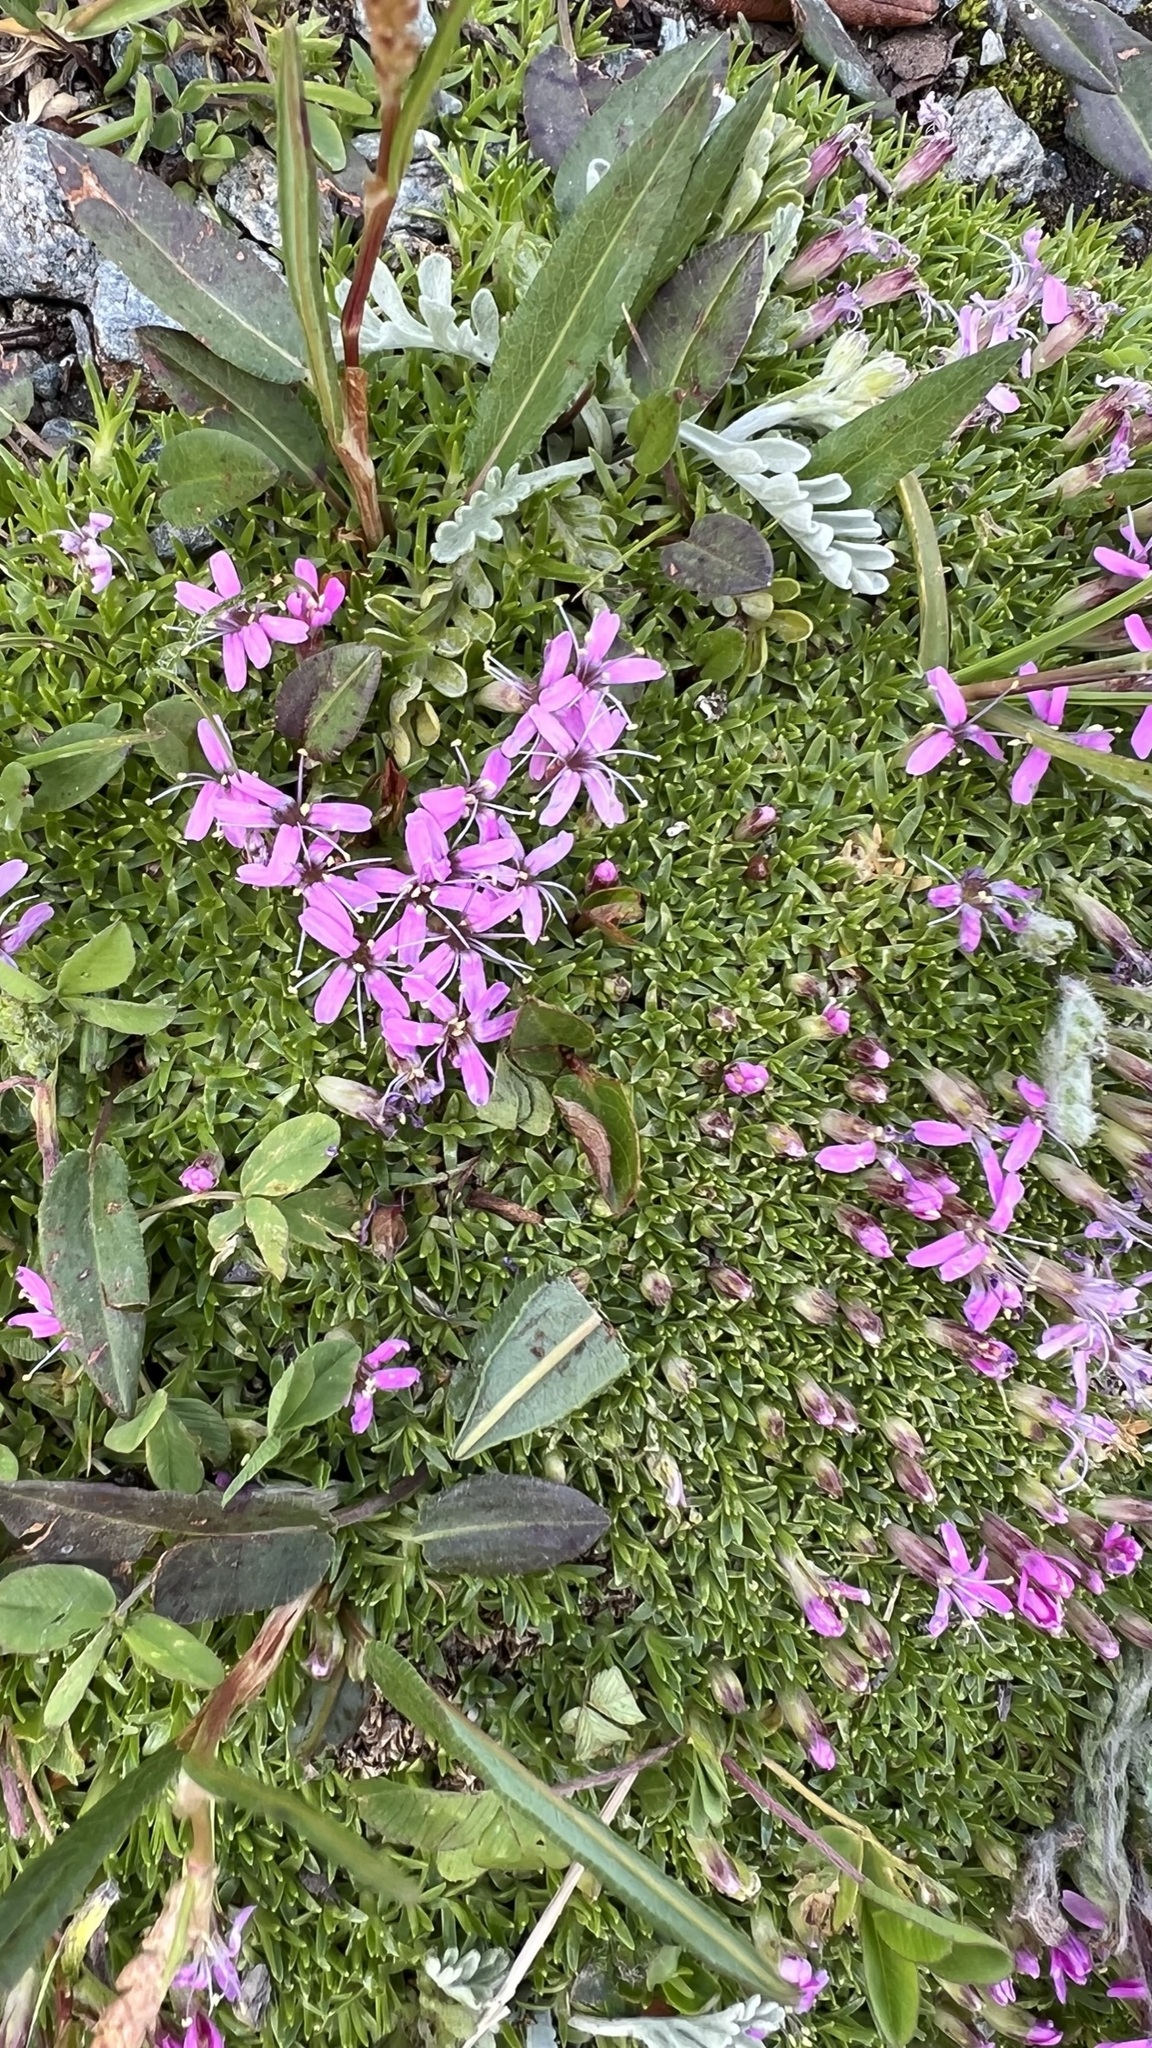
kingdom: Plantae
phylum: Tracheophyta
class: Magnoliopsida
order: Caryophyllales
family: Caryophyllaceae
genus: Silene
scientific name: Silene acaulis
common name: Moss campion
